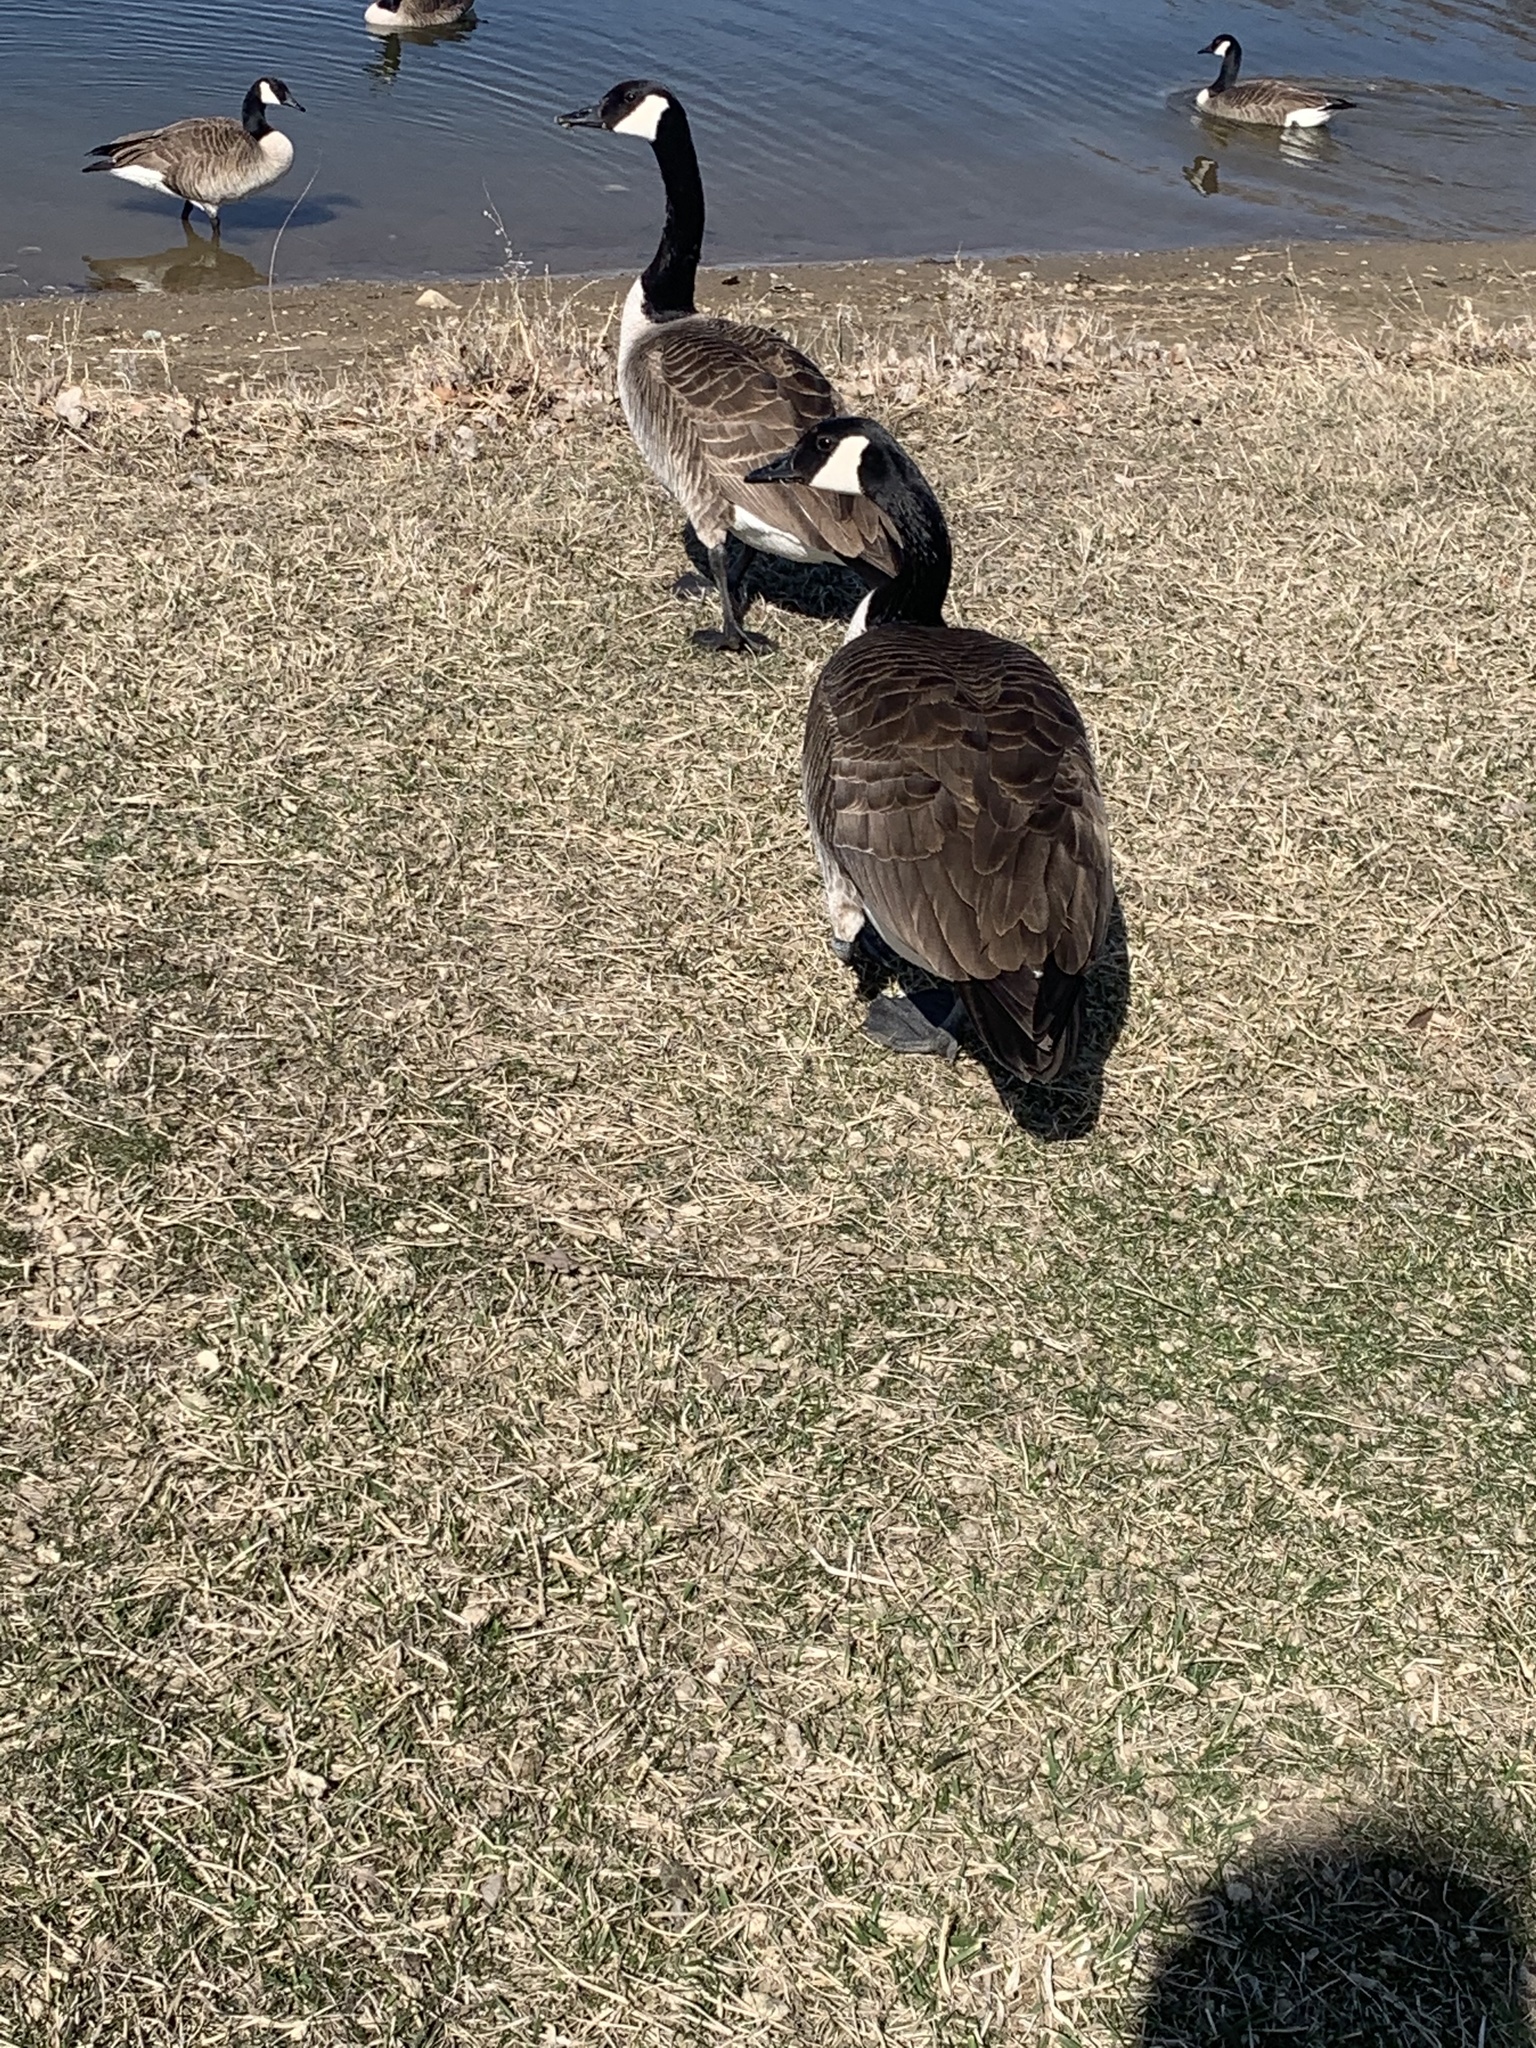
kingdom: Animalia
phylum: Chordata
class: Aves
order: Anseriformes
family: Anatidae
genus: Branta
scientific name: Branta canadensis
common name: Canada goose
